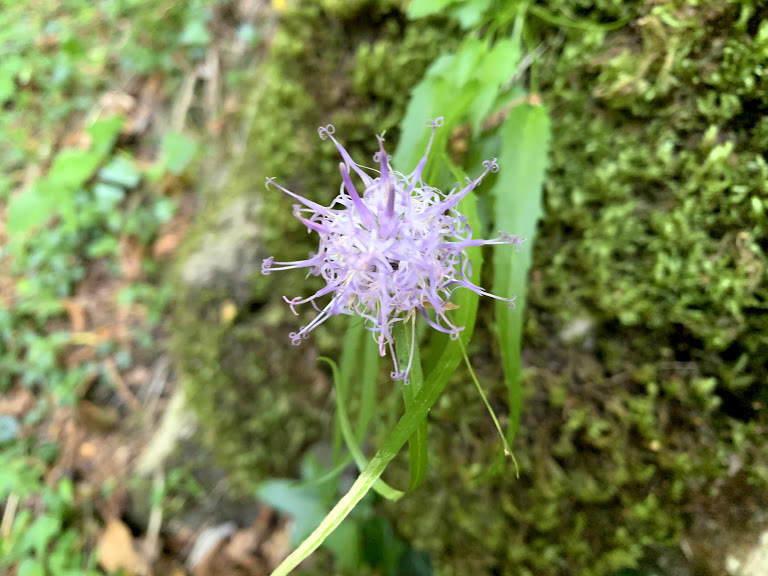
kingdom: Plantae
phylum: Tracheophyta
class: Magnoliopsida
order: Asterales
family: Campanulaceae
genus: Phyteuma
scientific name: Phyteuma scheuchzeri
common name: Oxford rampion
